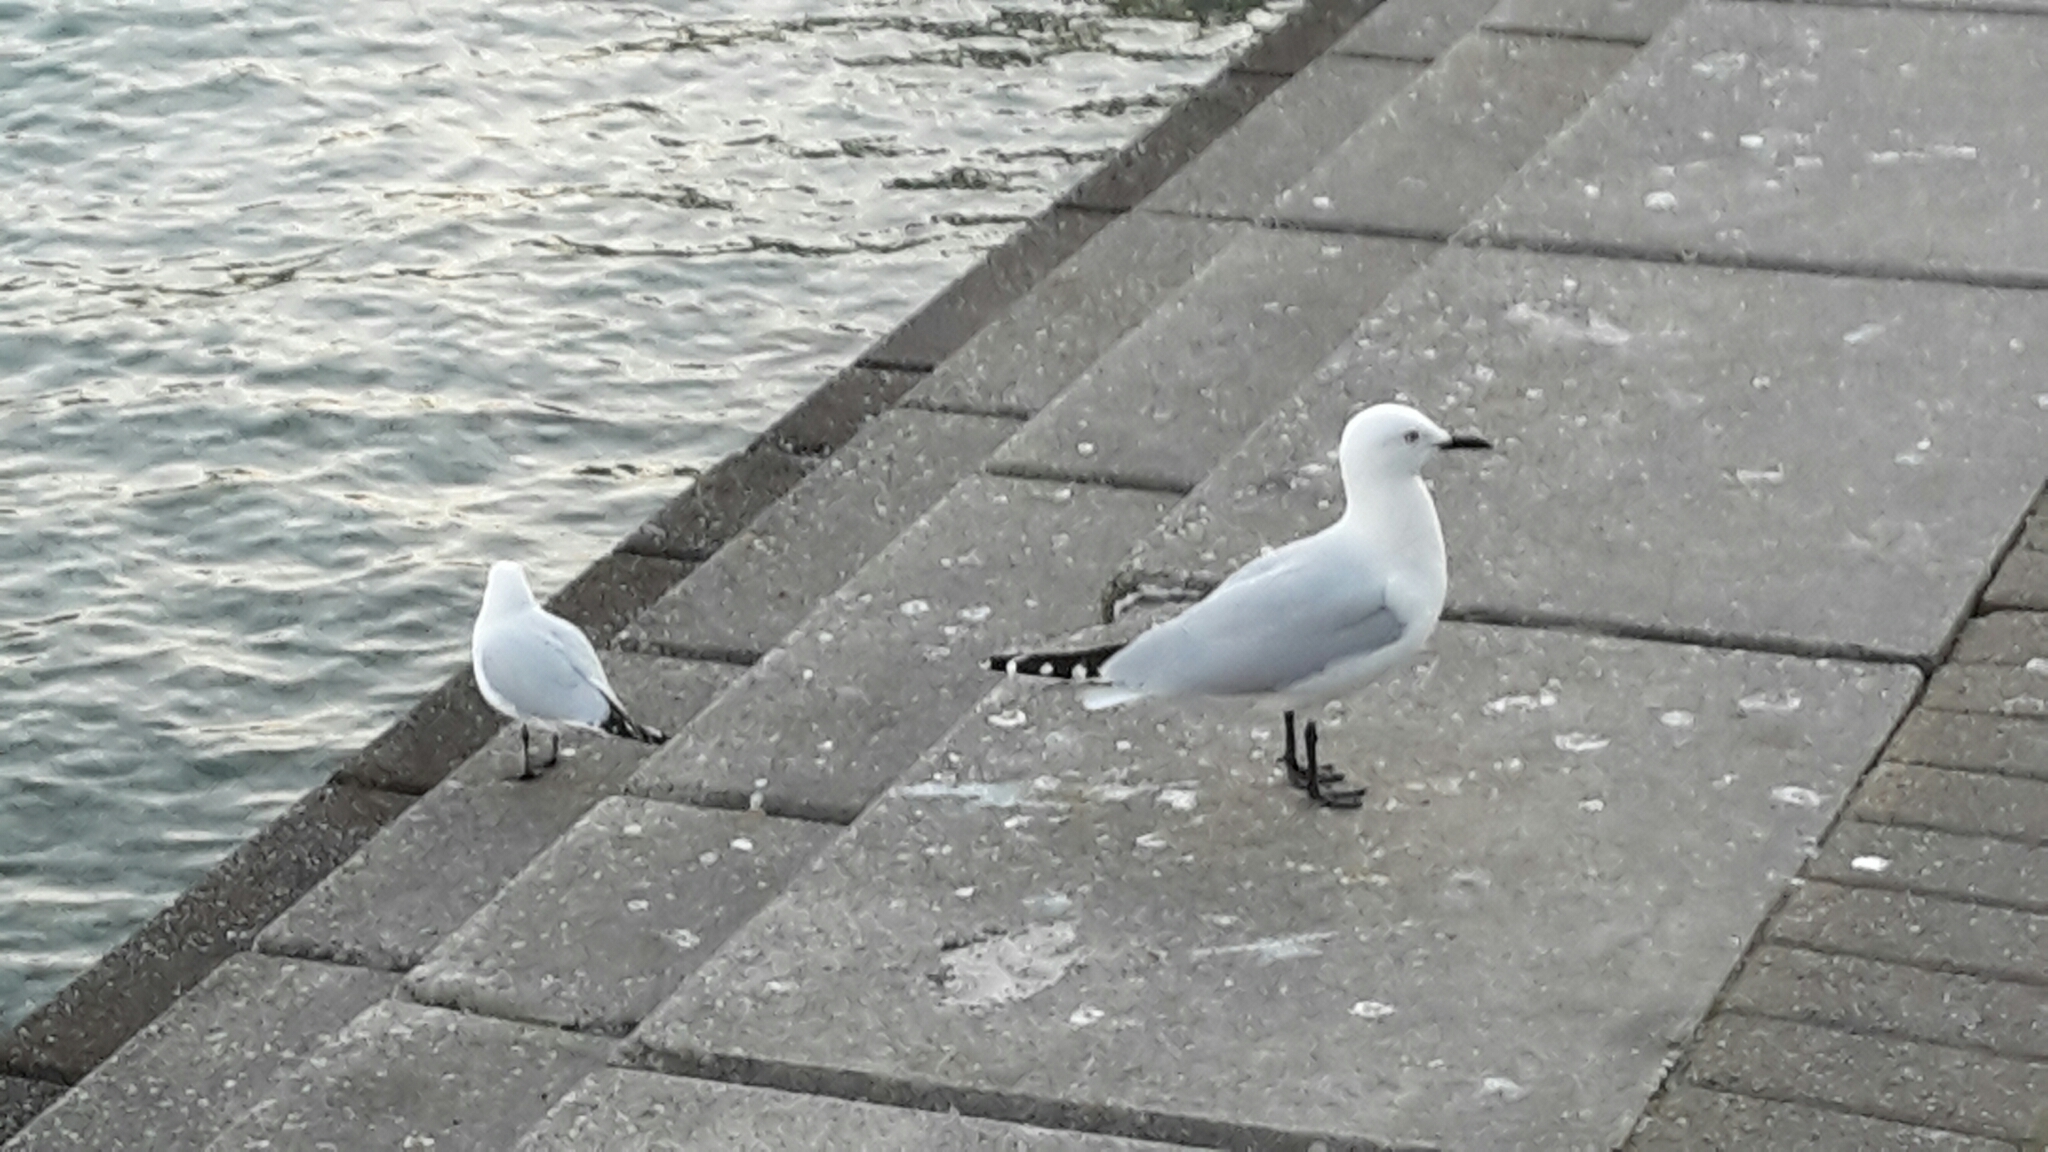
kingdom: Animalia
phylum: Chordata
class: Aves
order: Charadriiformes
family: Laridae
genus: Chroicocephalus
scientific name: Chroicocephalus bulleri
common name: Black-billed gull
